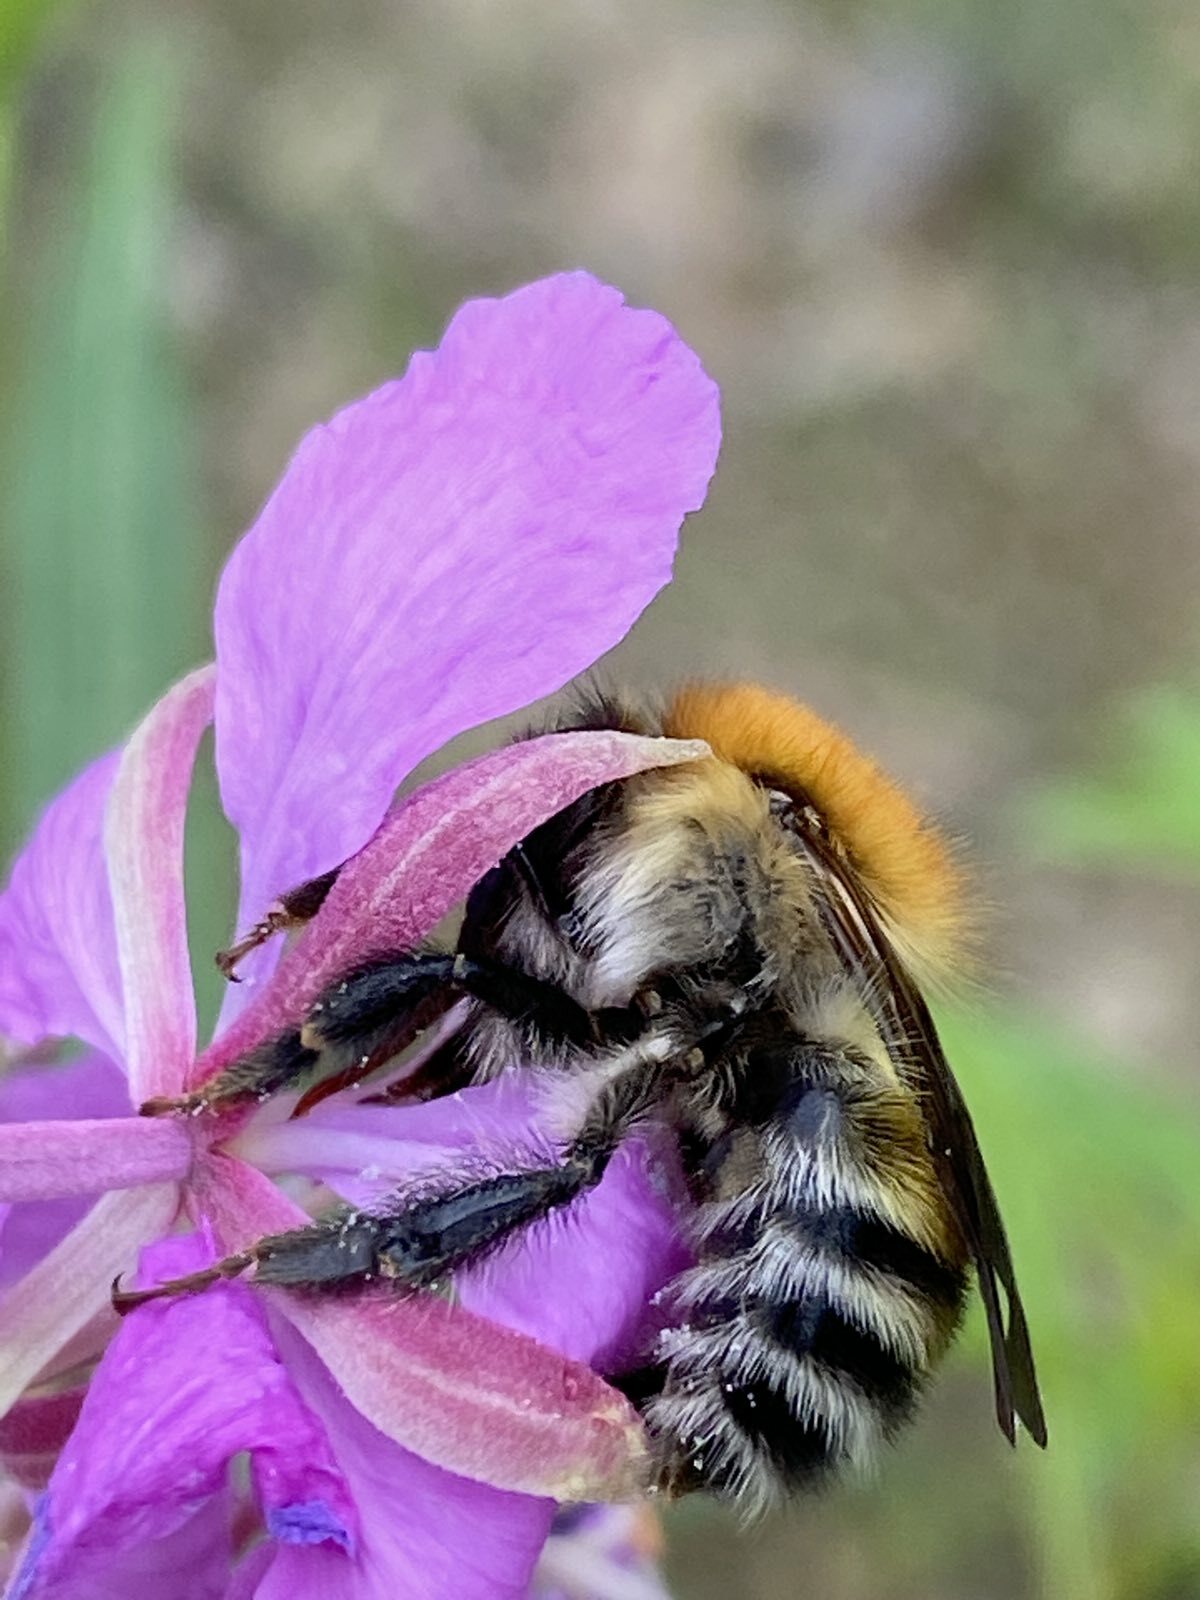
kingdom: Animalia
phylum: Arthropoda
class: Insecta
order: Hymenoptera
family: Apidae
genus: Bombus
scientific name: Bombus schrencki
